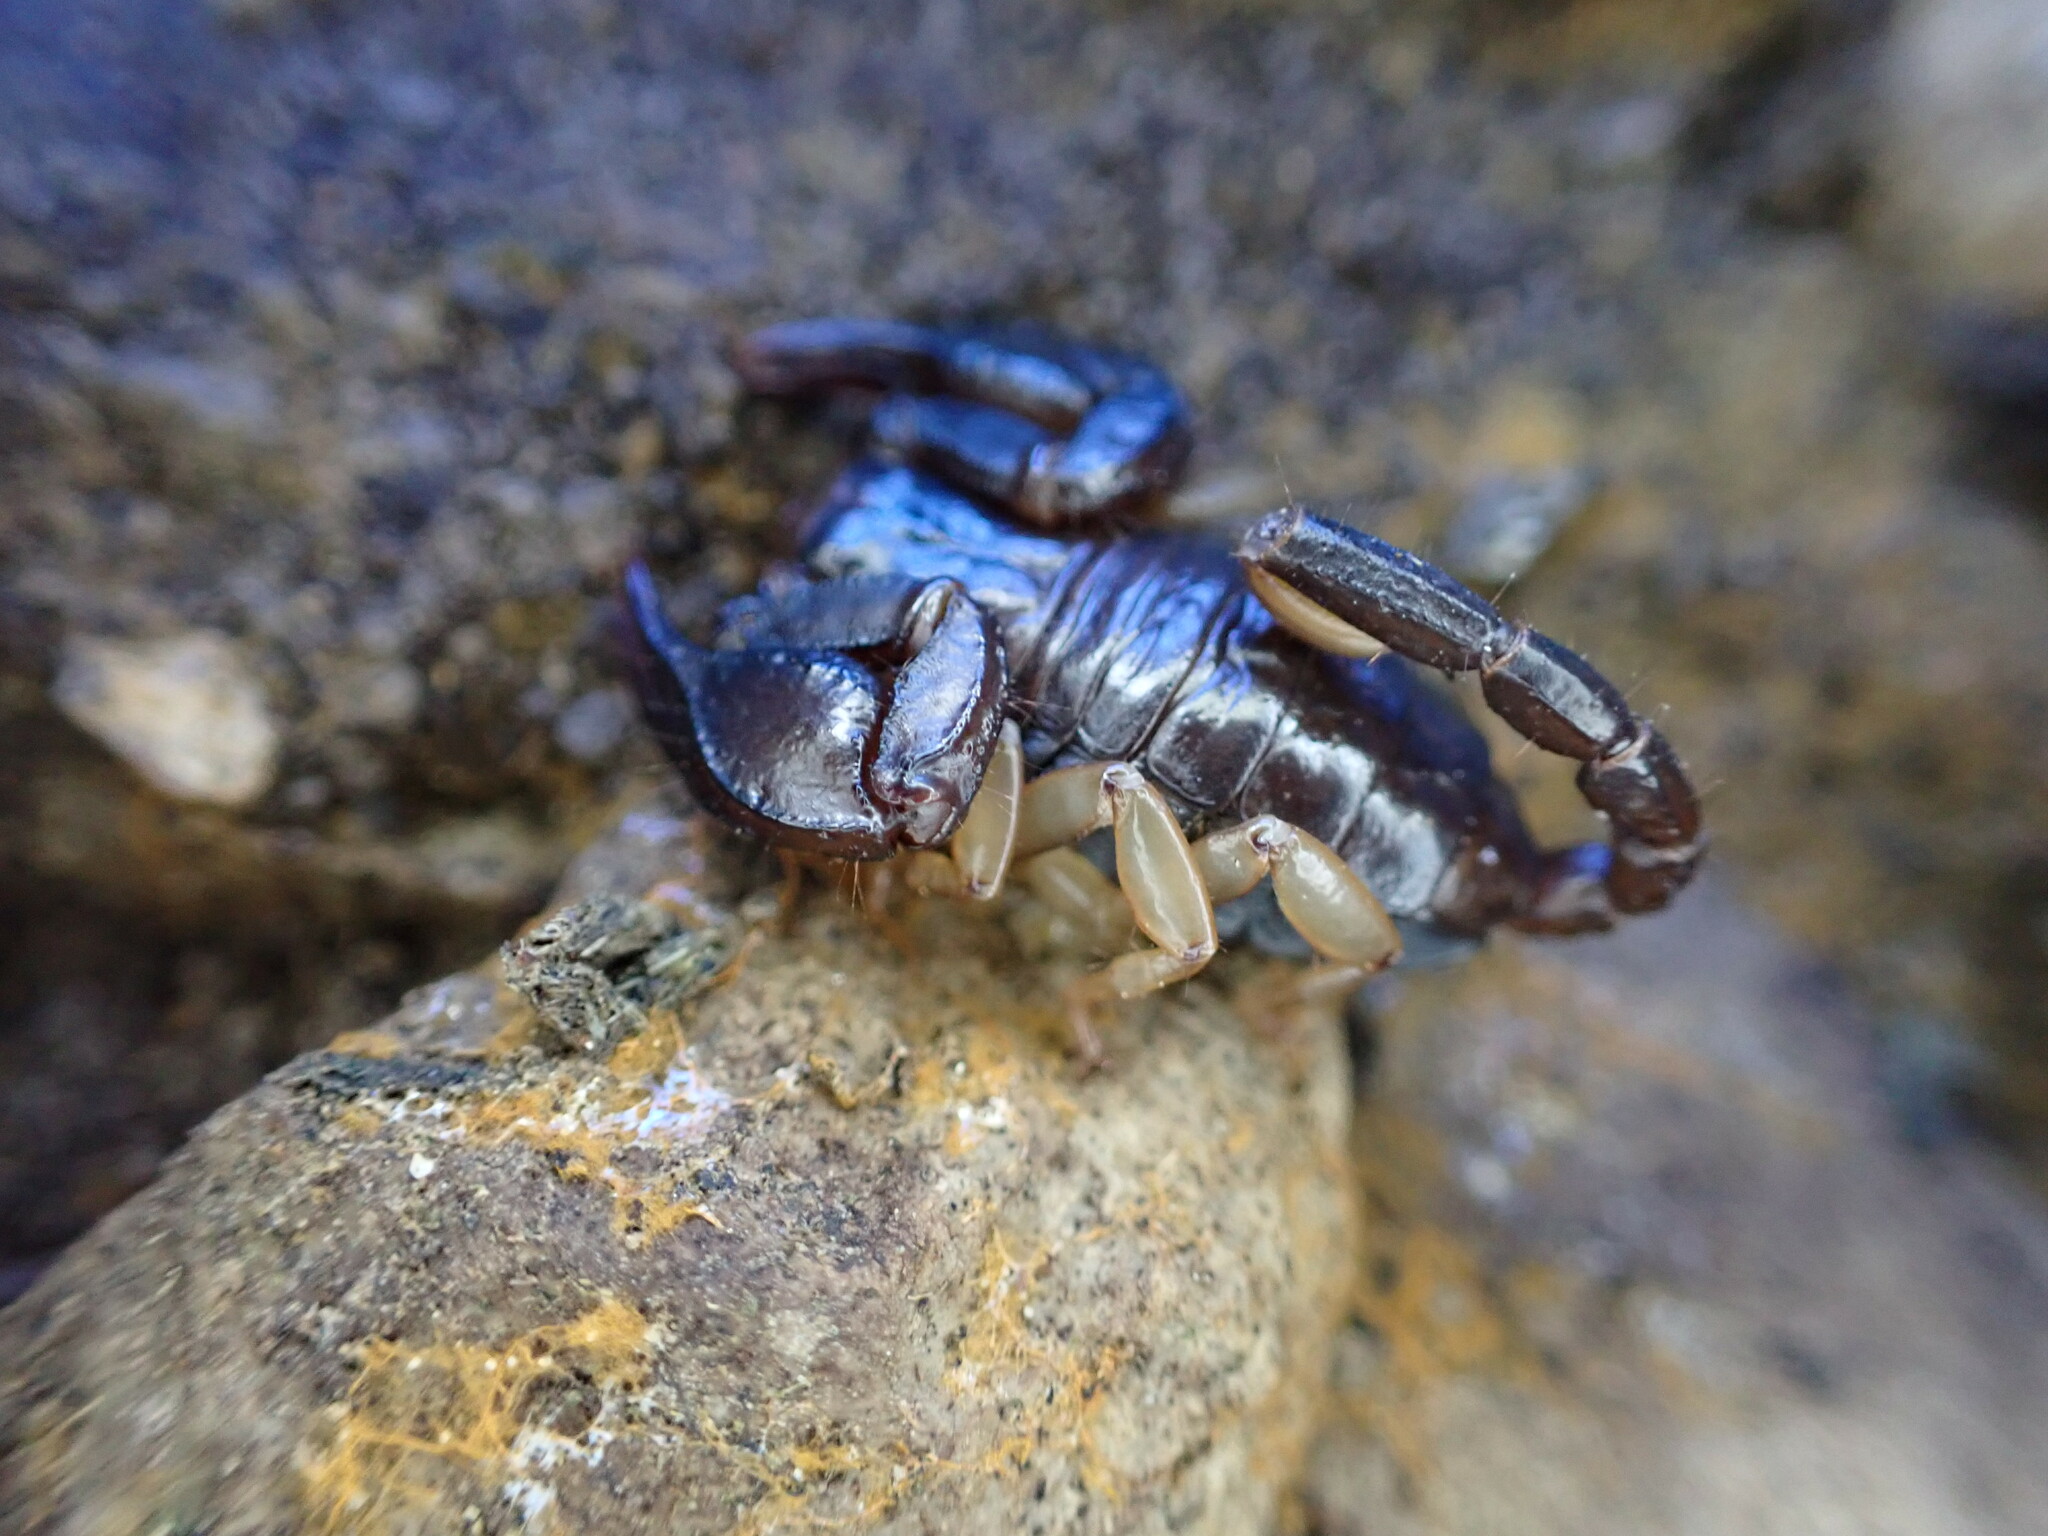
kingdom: Animalia
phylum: Arthropoda
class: Arachnida
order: Scorpiones
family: Euscorpiidae
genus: Euscorpius
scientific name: Euscorpius niciensis
